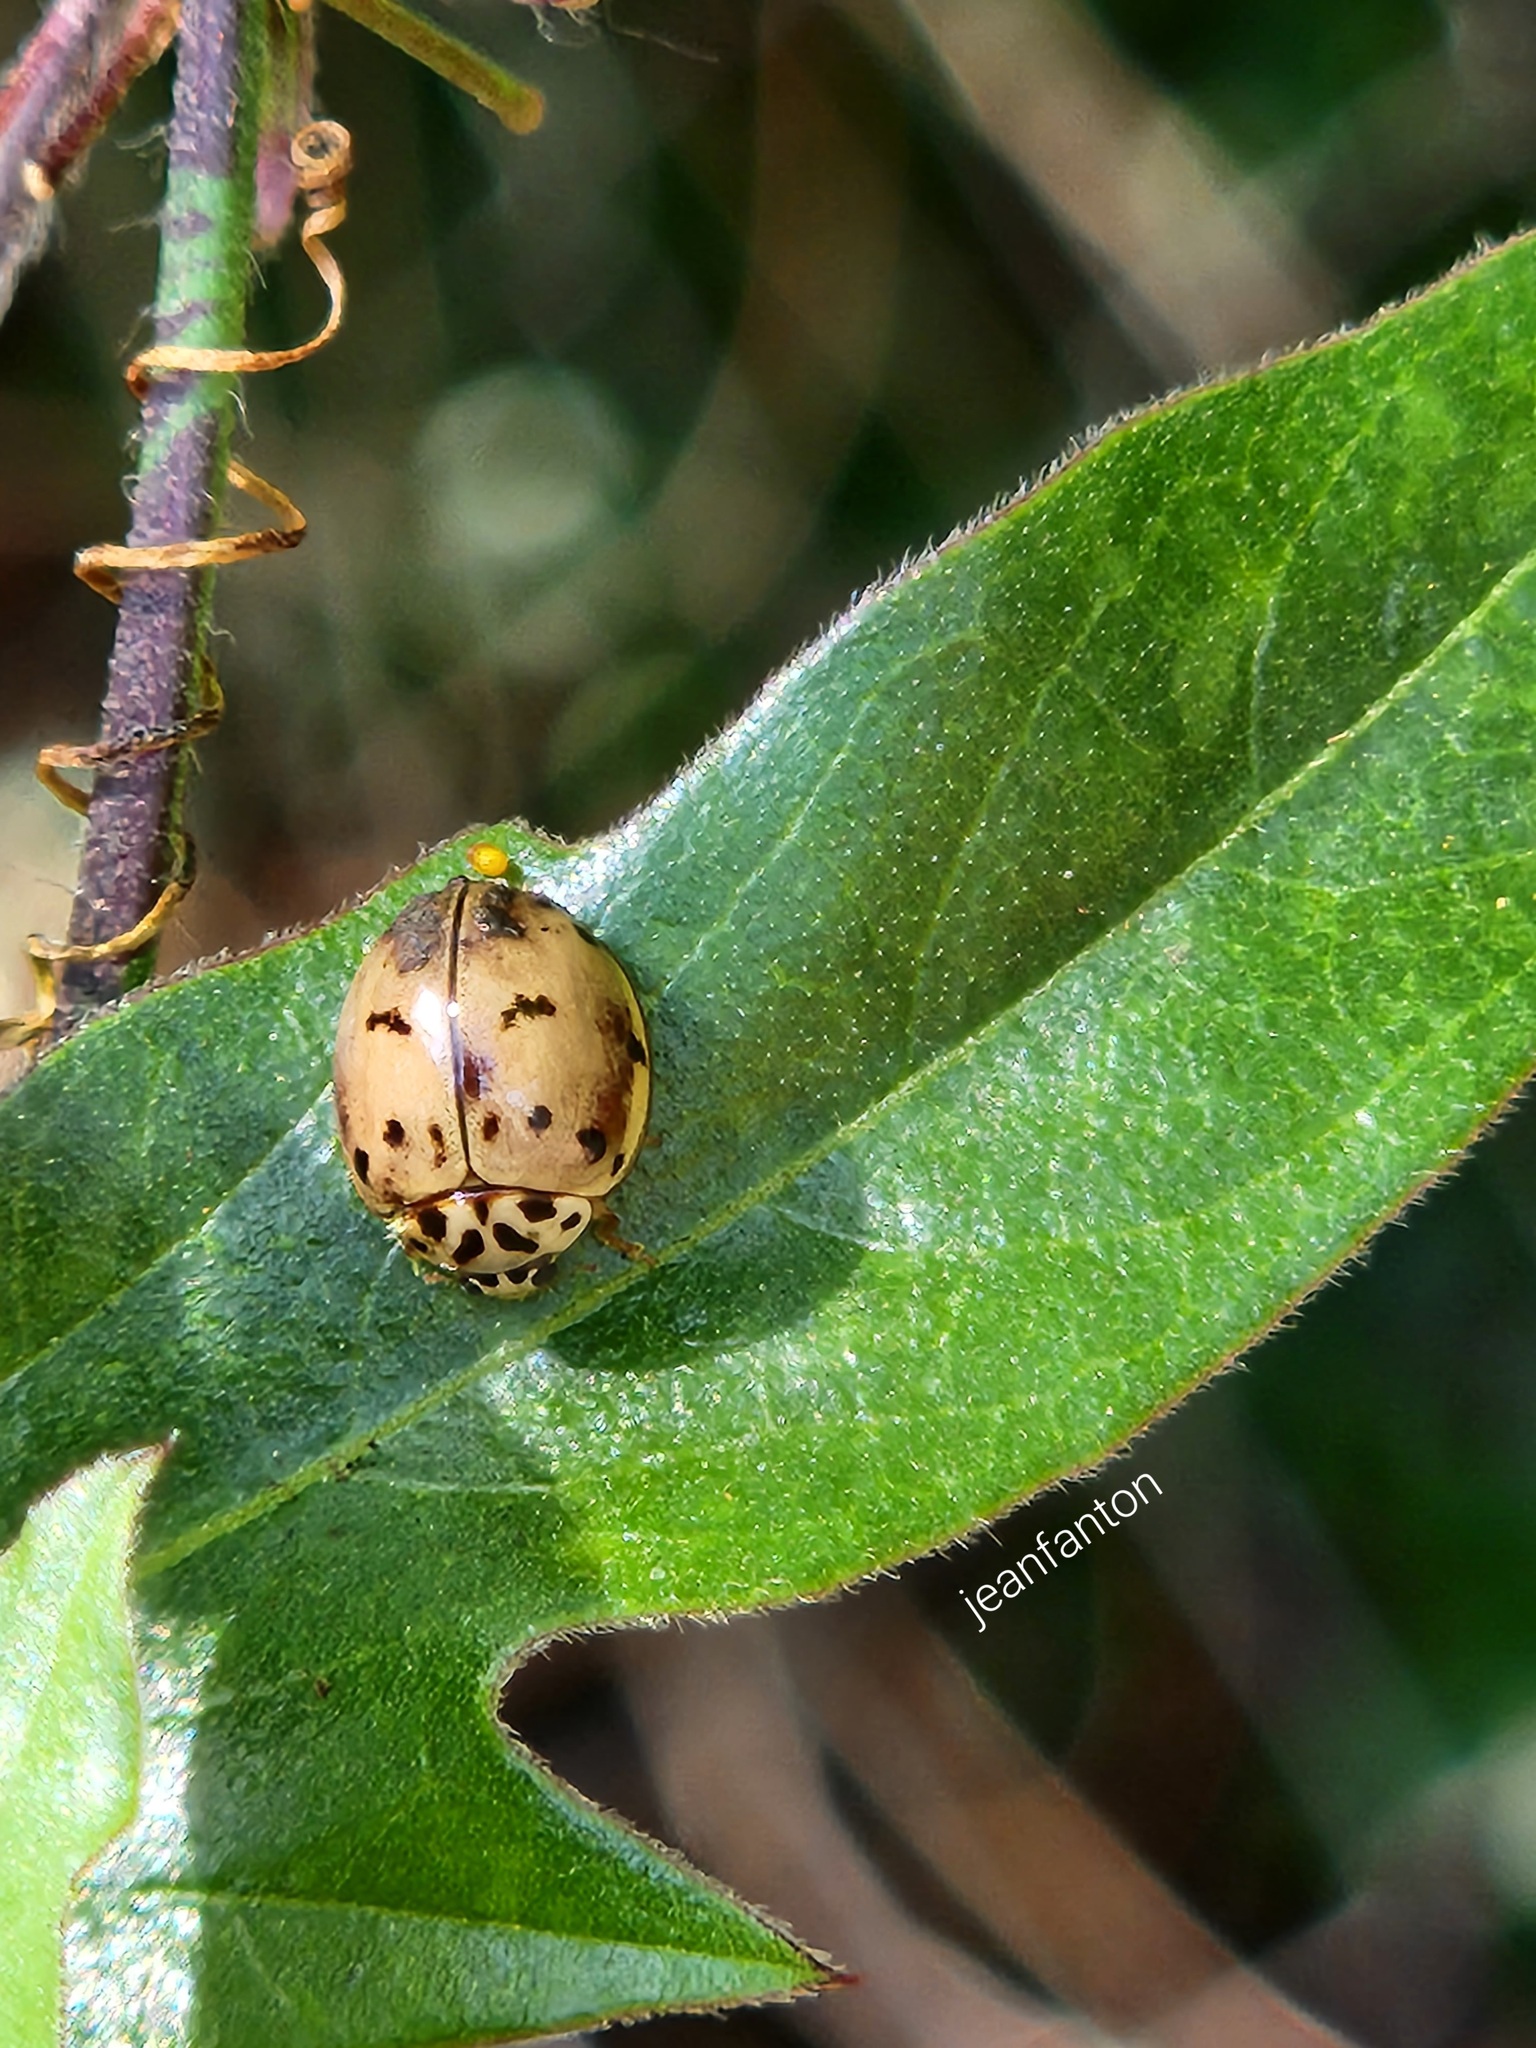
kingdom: Animalia
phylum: Arthropoda
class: Insecta
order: Coleoptera
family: Coccinellidae
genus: Olla
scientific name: Olla v-nigrum
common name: Ashy gray lady beetle
